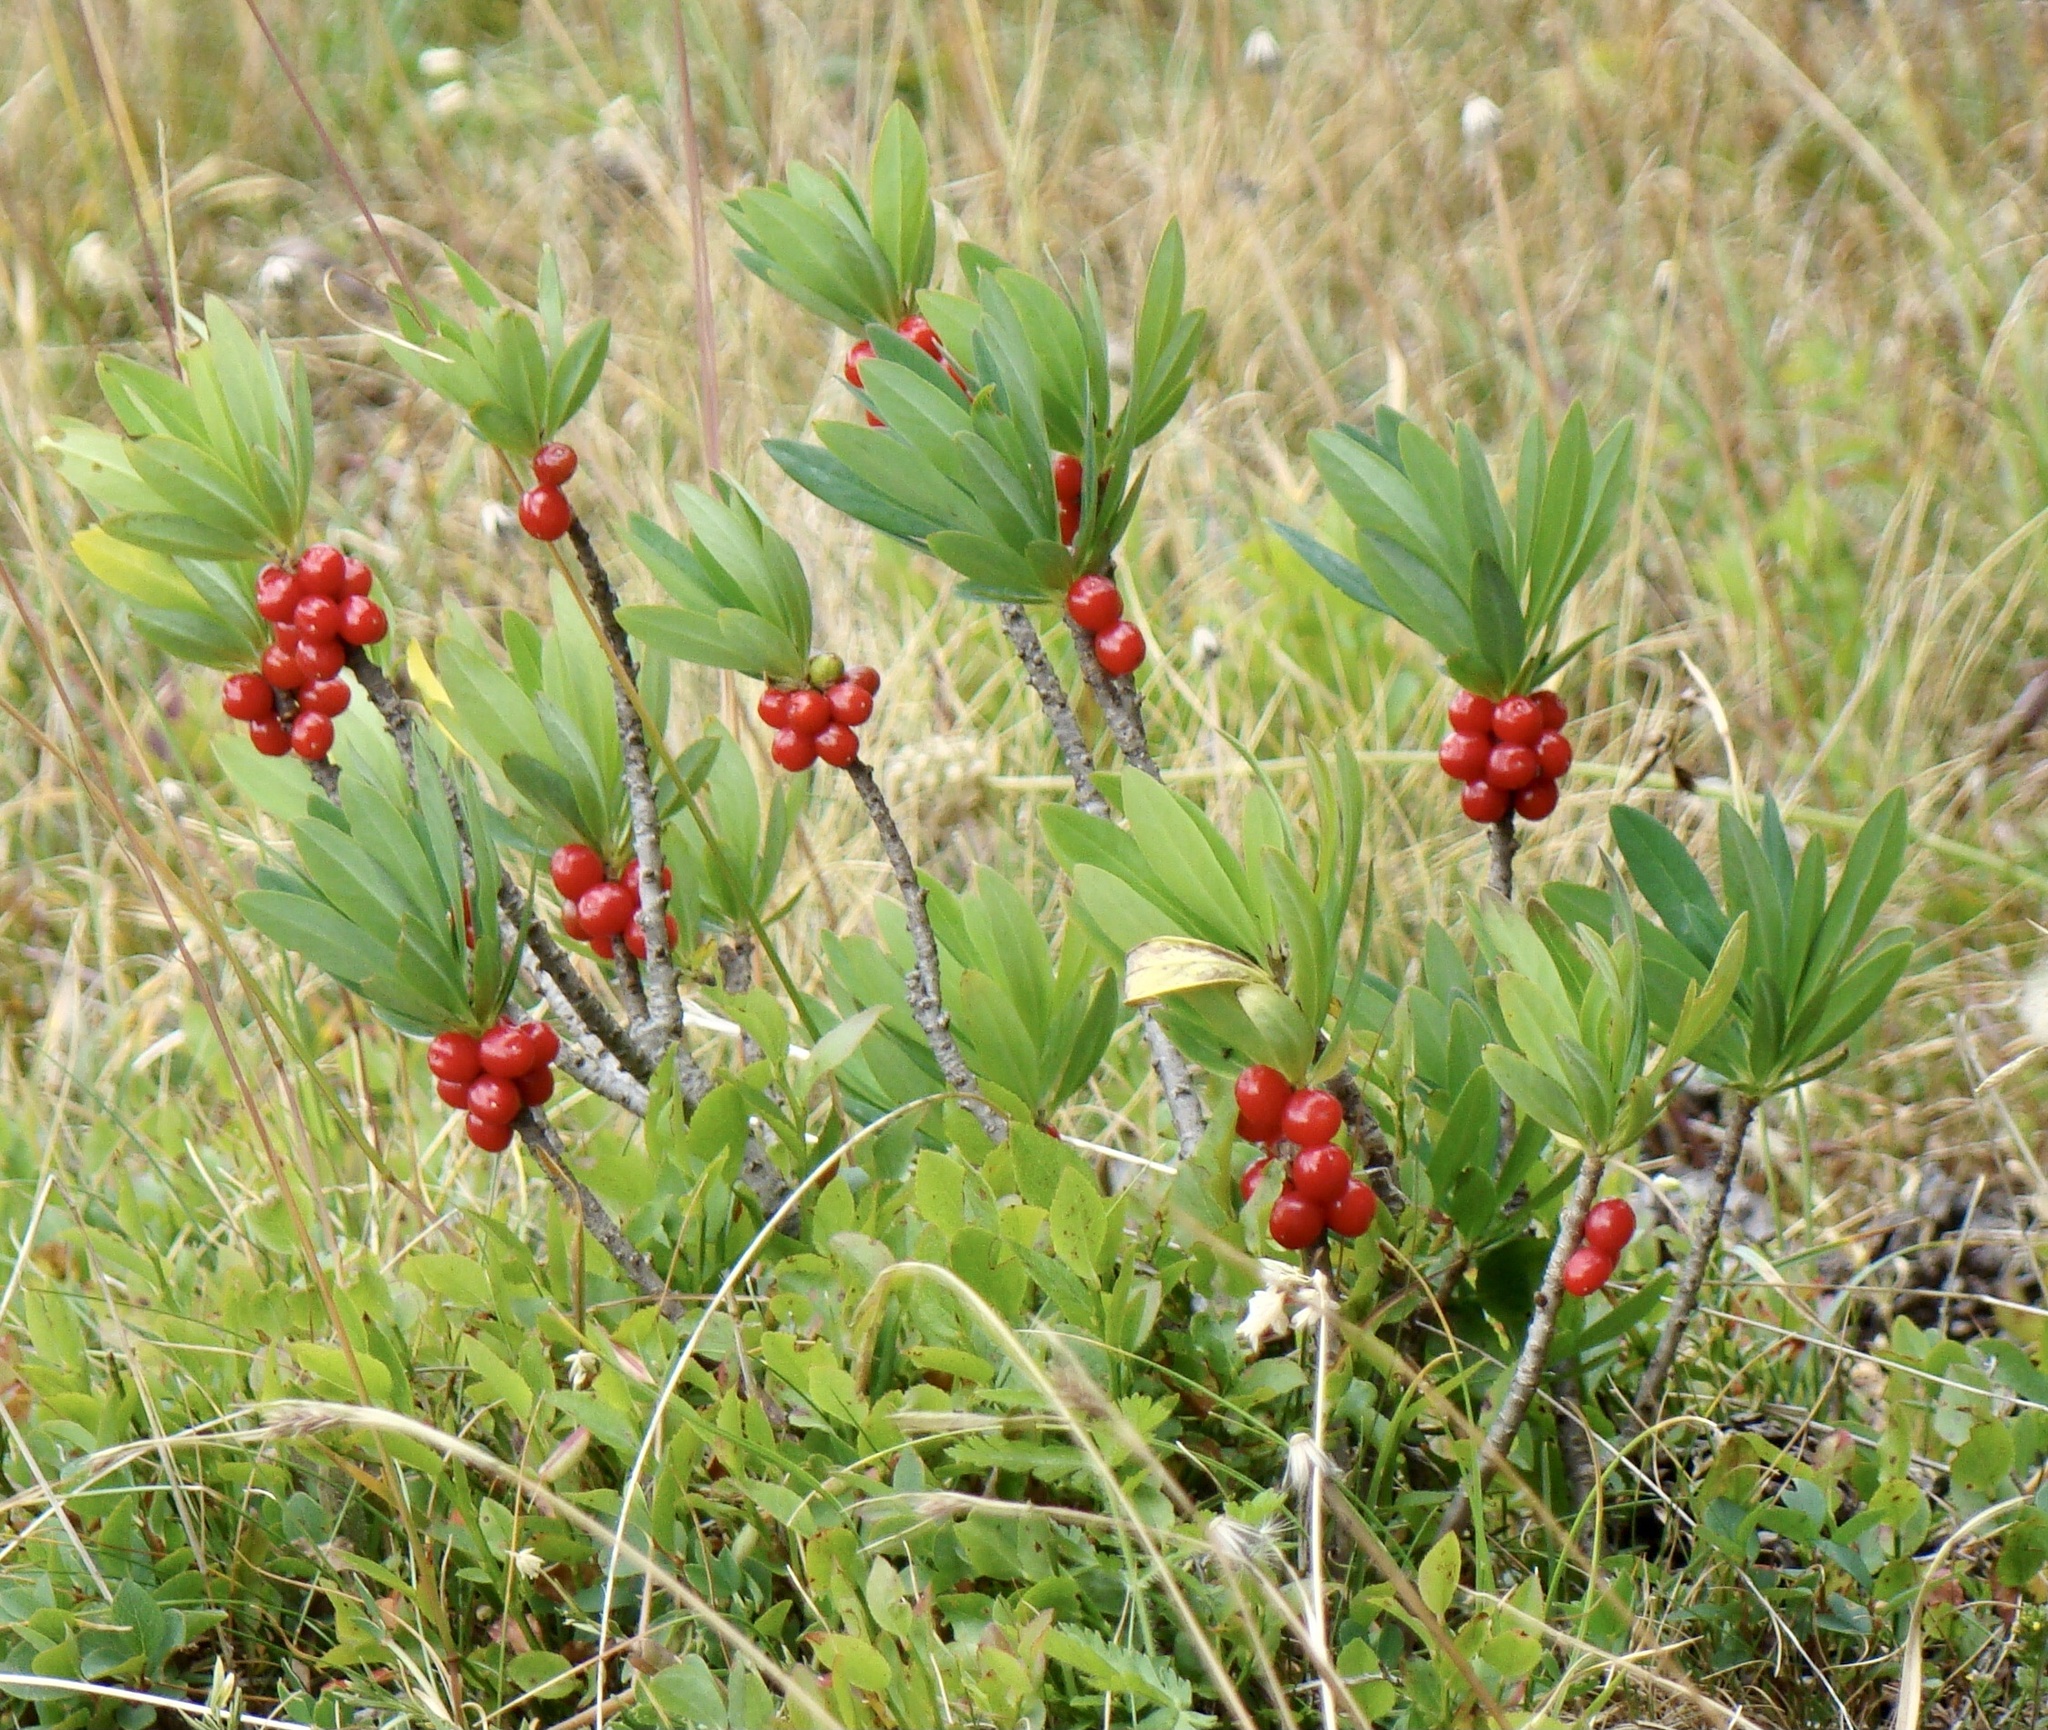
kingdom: Plantae
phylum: Tracheophyta
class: Magnoliopsida
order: Malvales
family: Thymelaeaceae
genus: Daphne
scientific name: Daphne mezereum
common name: Mezereon
